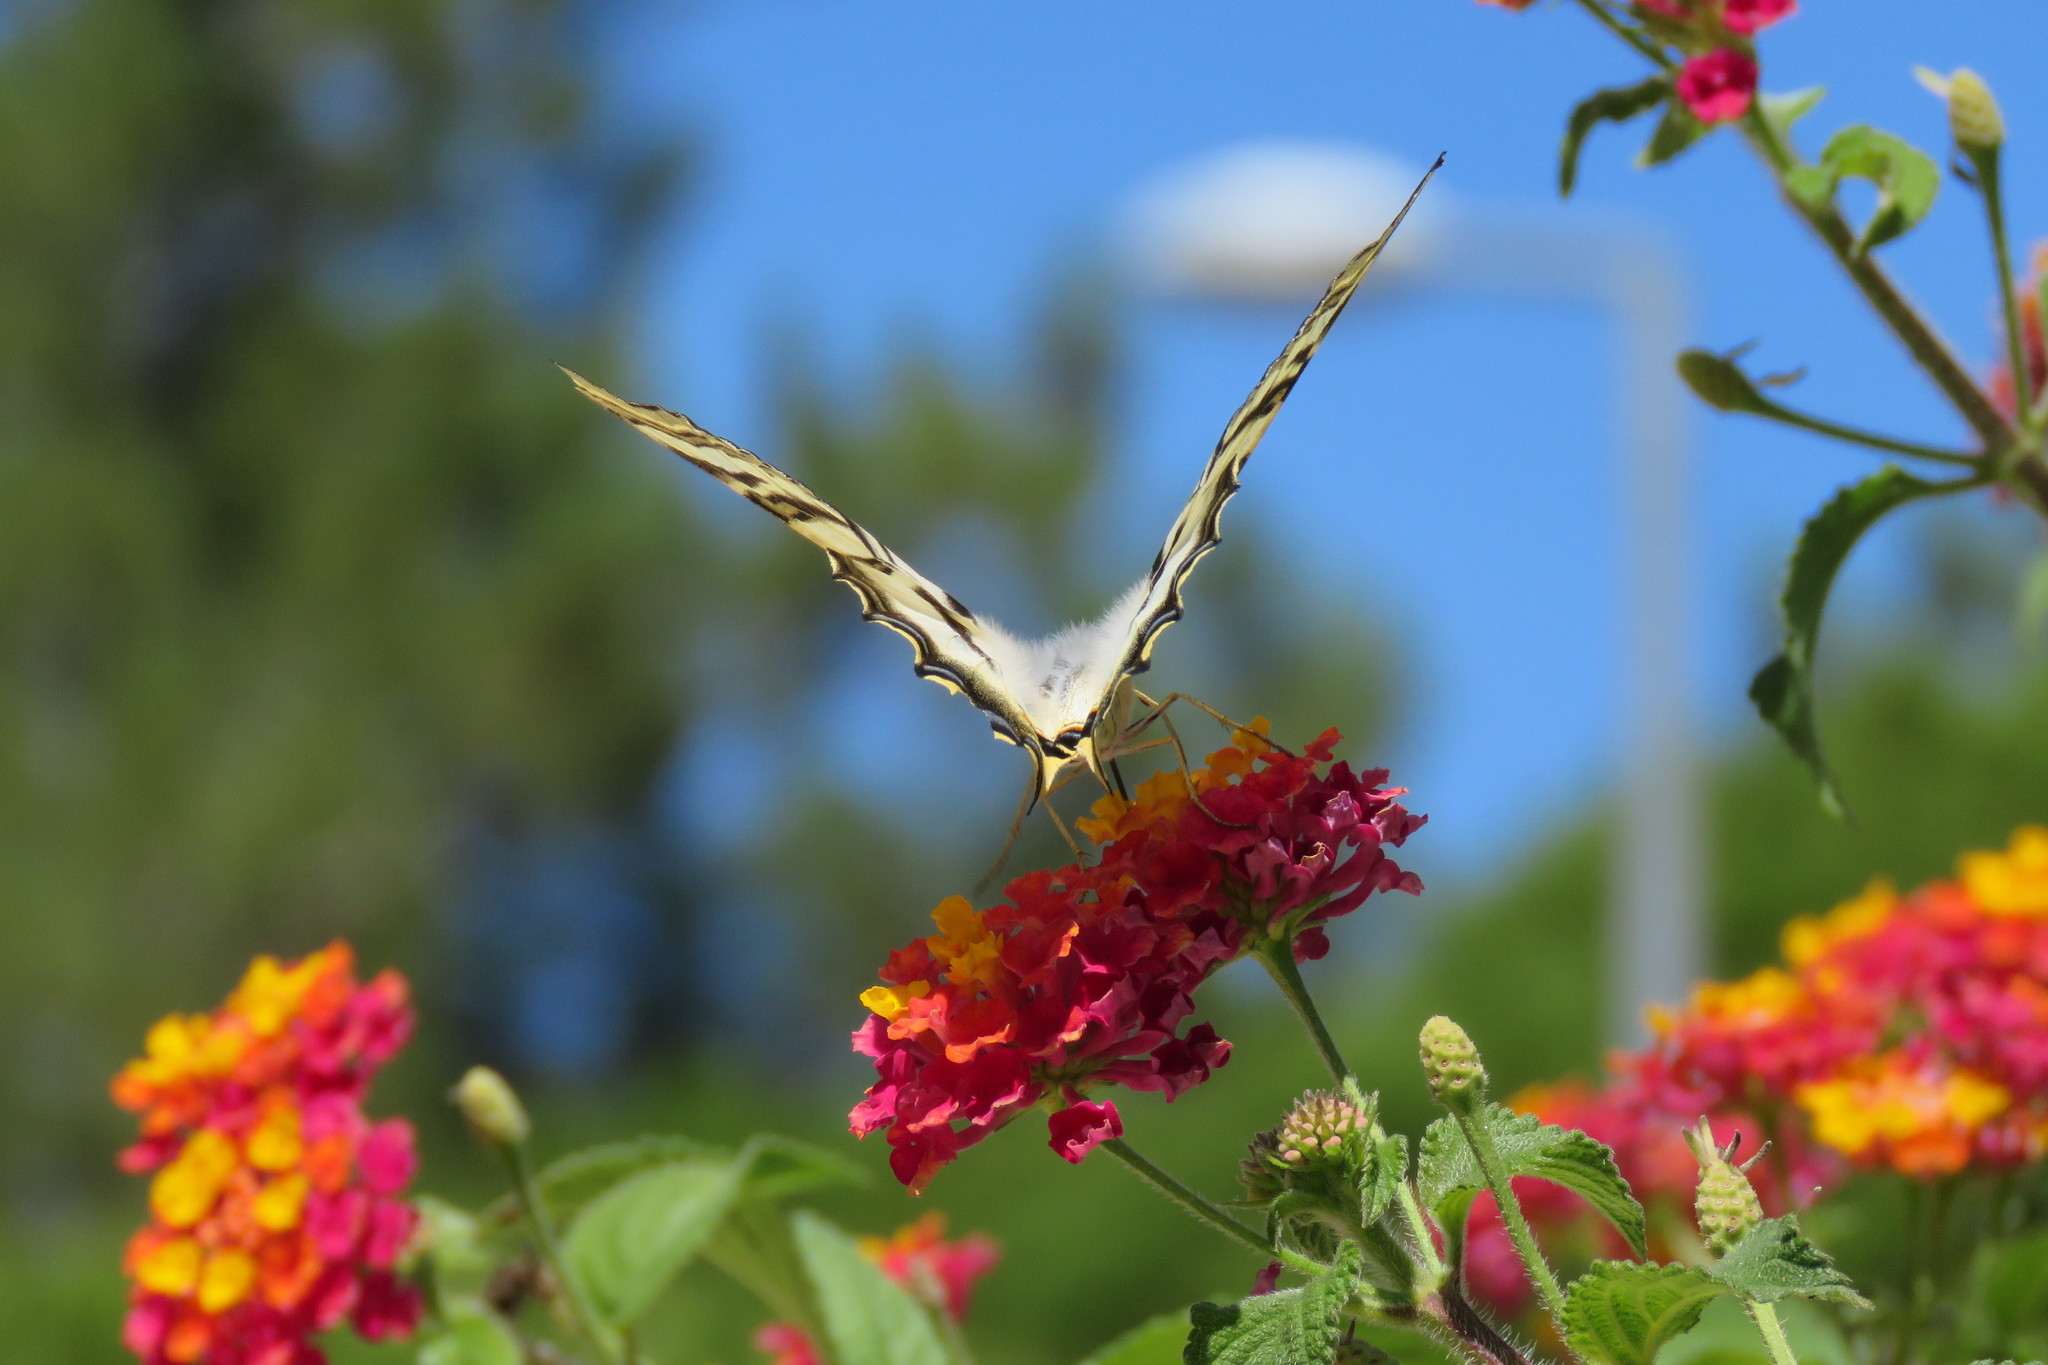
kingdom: Animalia
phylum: Arthropoda
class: Insecta
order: Lepidoptera
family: Papilionidae
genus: Iphiclides
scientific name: Iphiclides feisthamelii
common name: Iberian scarce swallowtail
